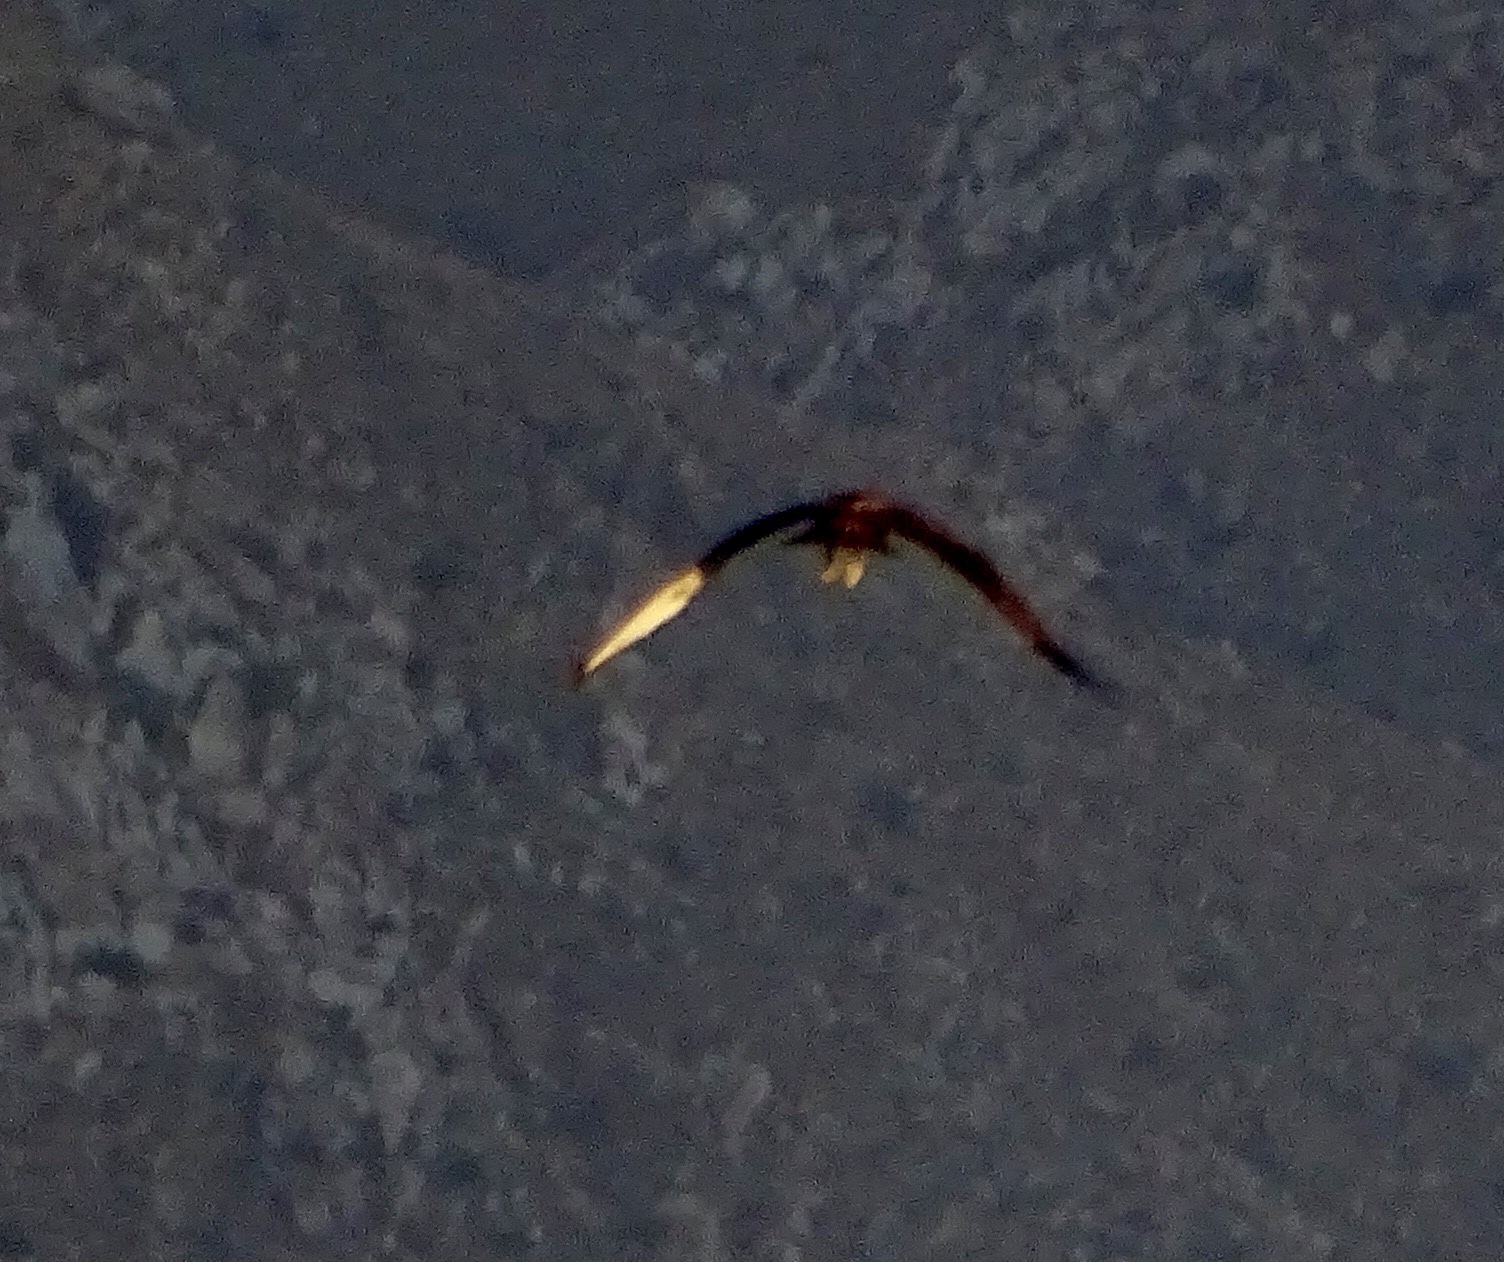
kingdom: Animalia
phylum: Chordata
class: Aves
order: Accipitriformes
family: Accipitridae
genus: Buteo
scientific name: Buteo jamaicensis
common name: Red-tailed hawk
